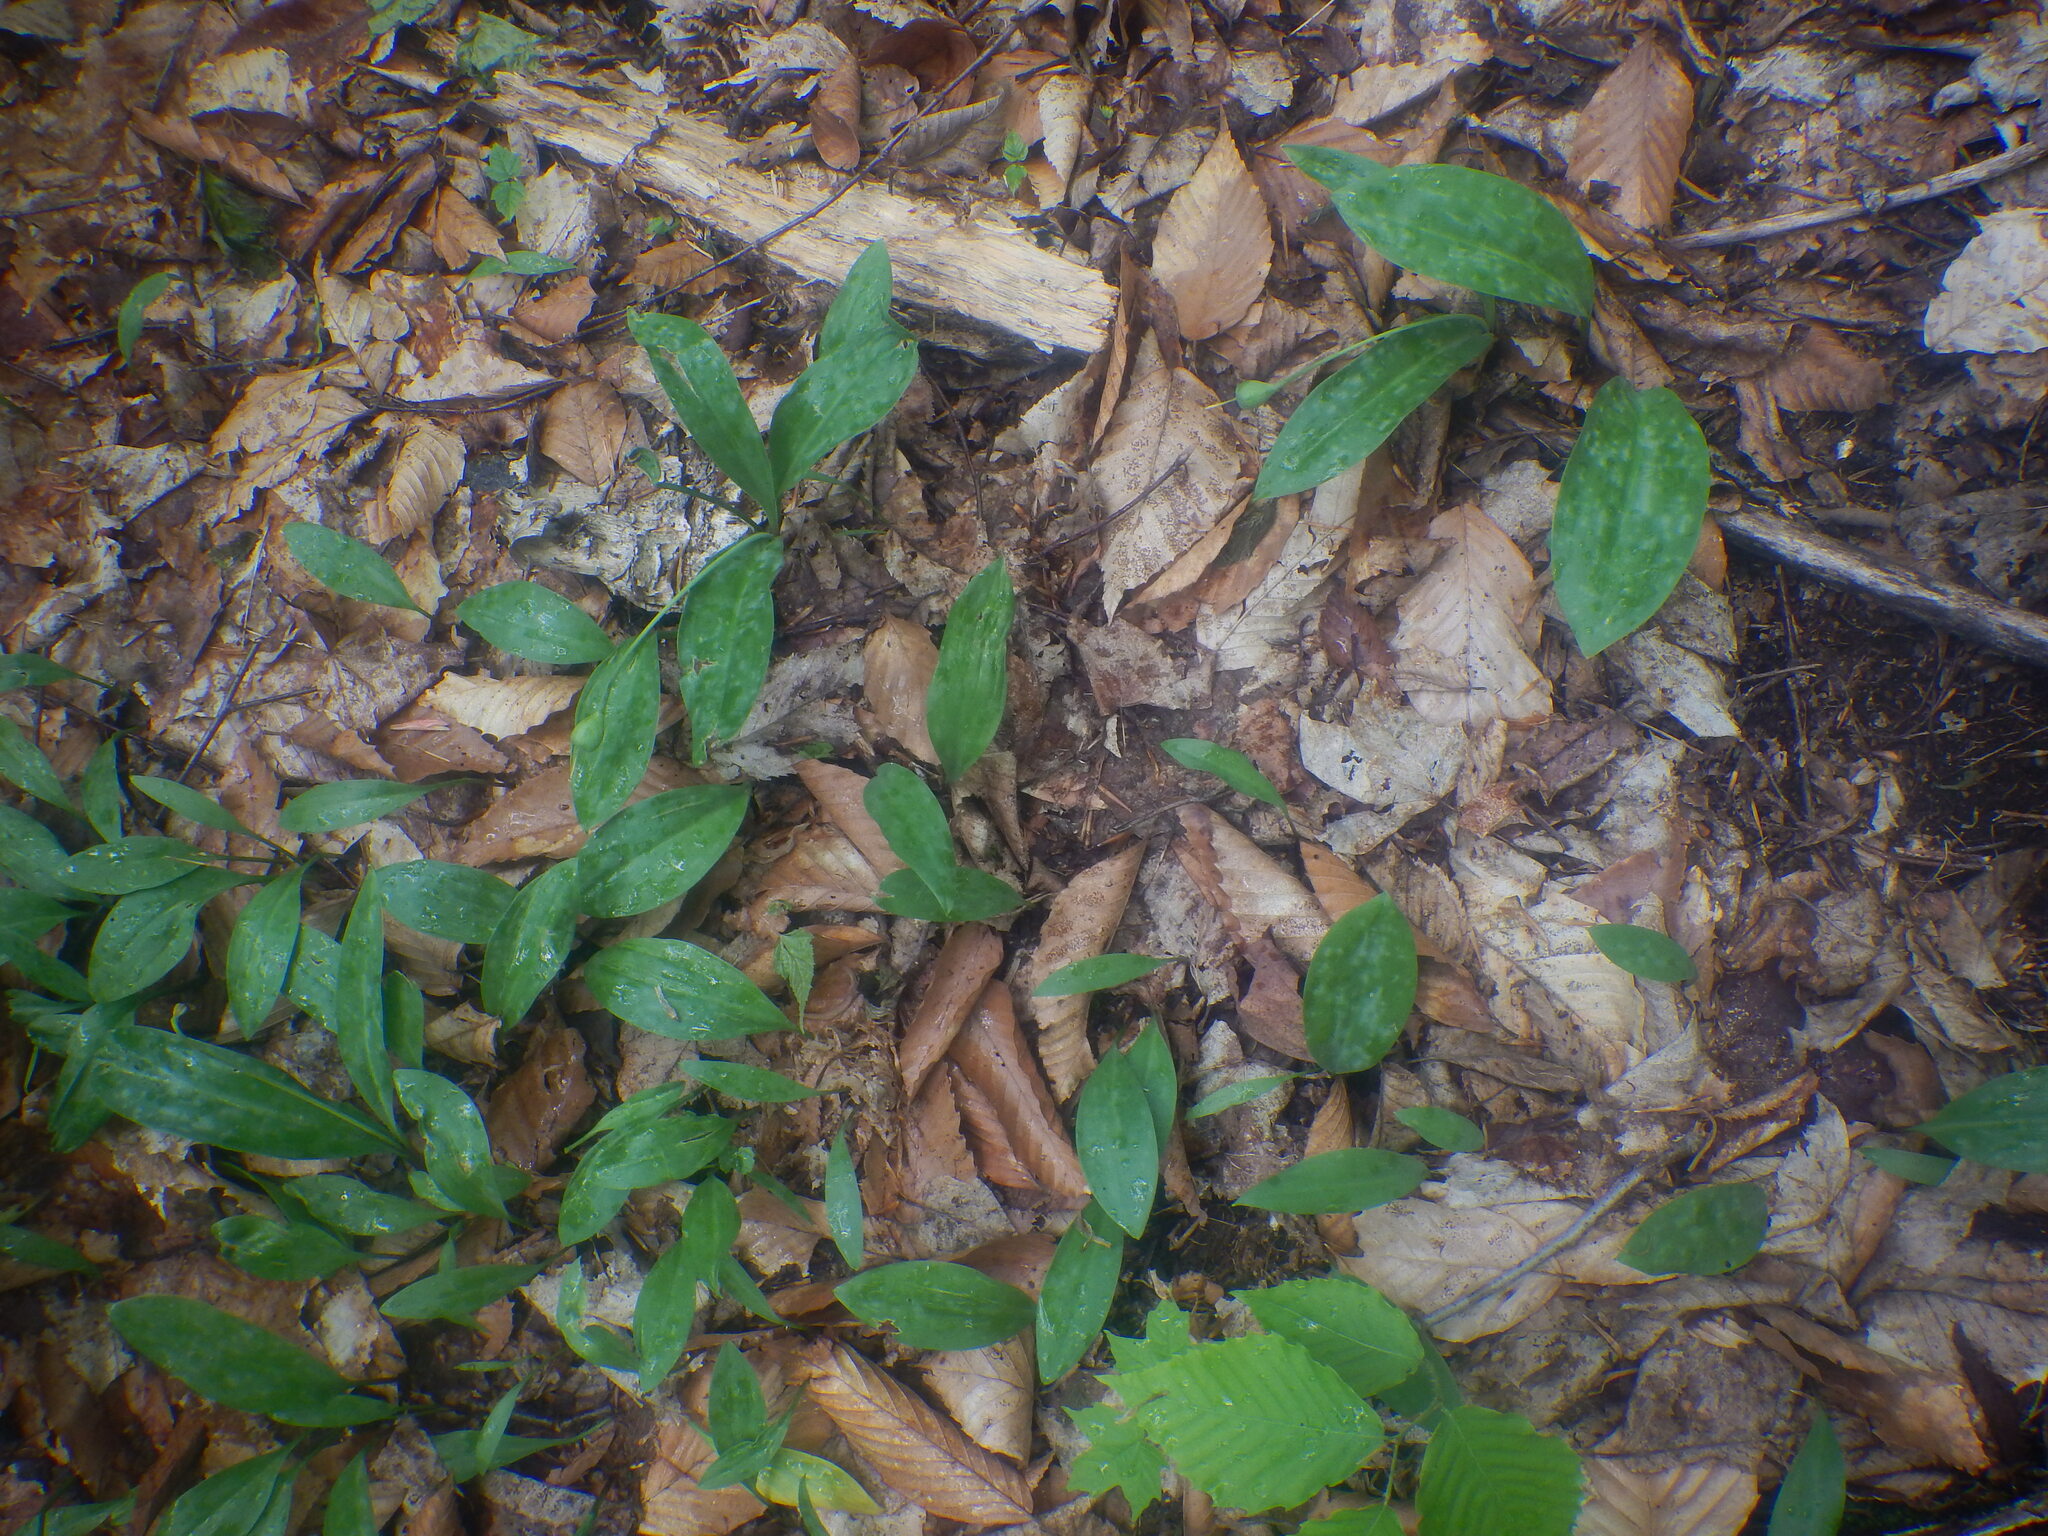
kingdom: Plantae
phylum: Tracheophyta
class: Liliopsida
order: Liliales
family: Liliaceae
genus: Erythronium
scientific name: Erythronium americanum
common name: Yellow adder's-tongue
